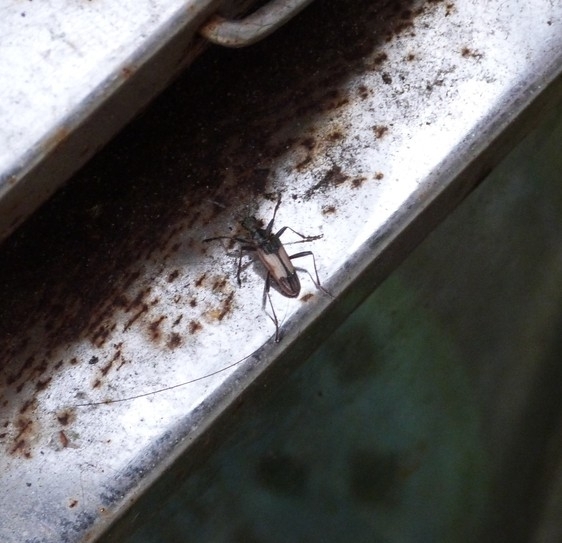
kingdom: Animalia
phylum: Arthropoda
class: Insecta
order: Coleoptera
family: Cerambycidae
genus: Rhagium
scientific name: Rhagium bifasciatum
